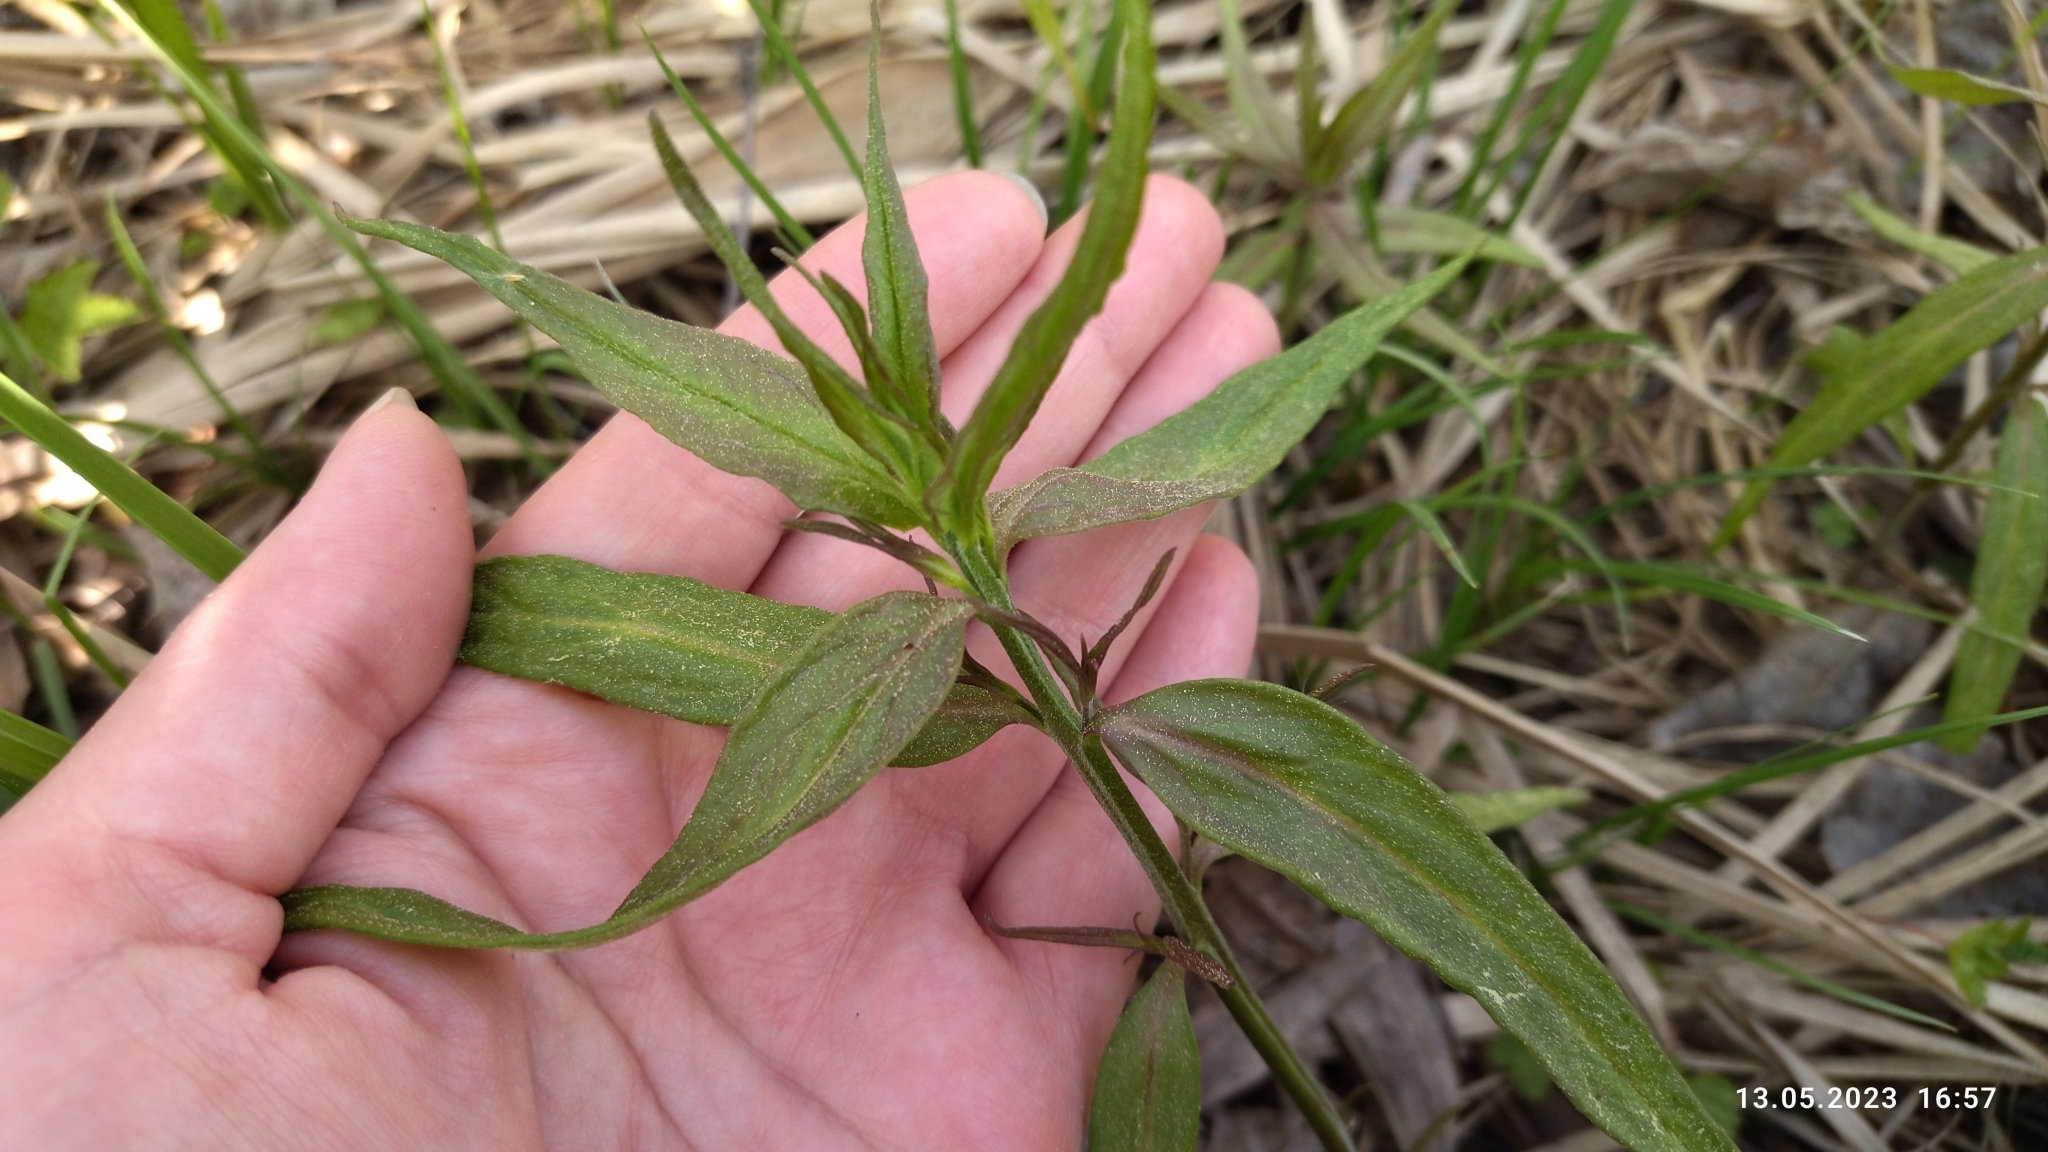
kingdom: Plantae
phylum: Tracheophyta
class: Magnoliopsida
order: Lamiales
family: Orobanchaceae
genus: Melampyrum
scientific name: Melampyrum pratense
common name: Common cow-wheat
